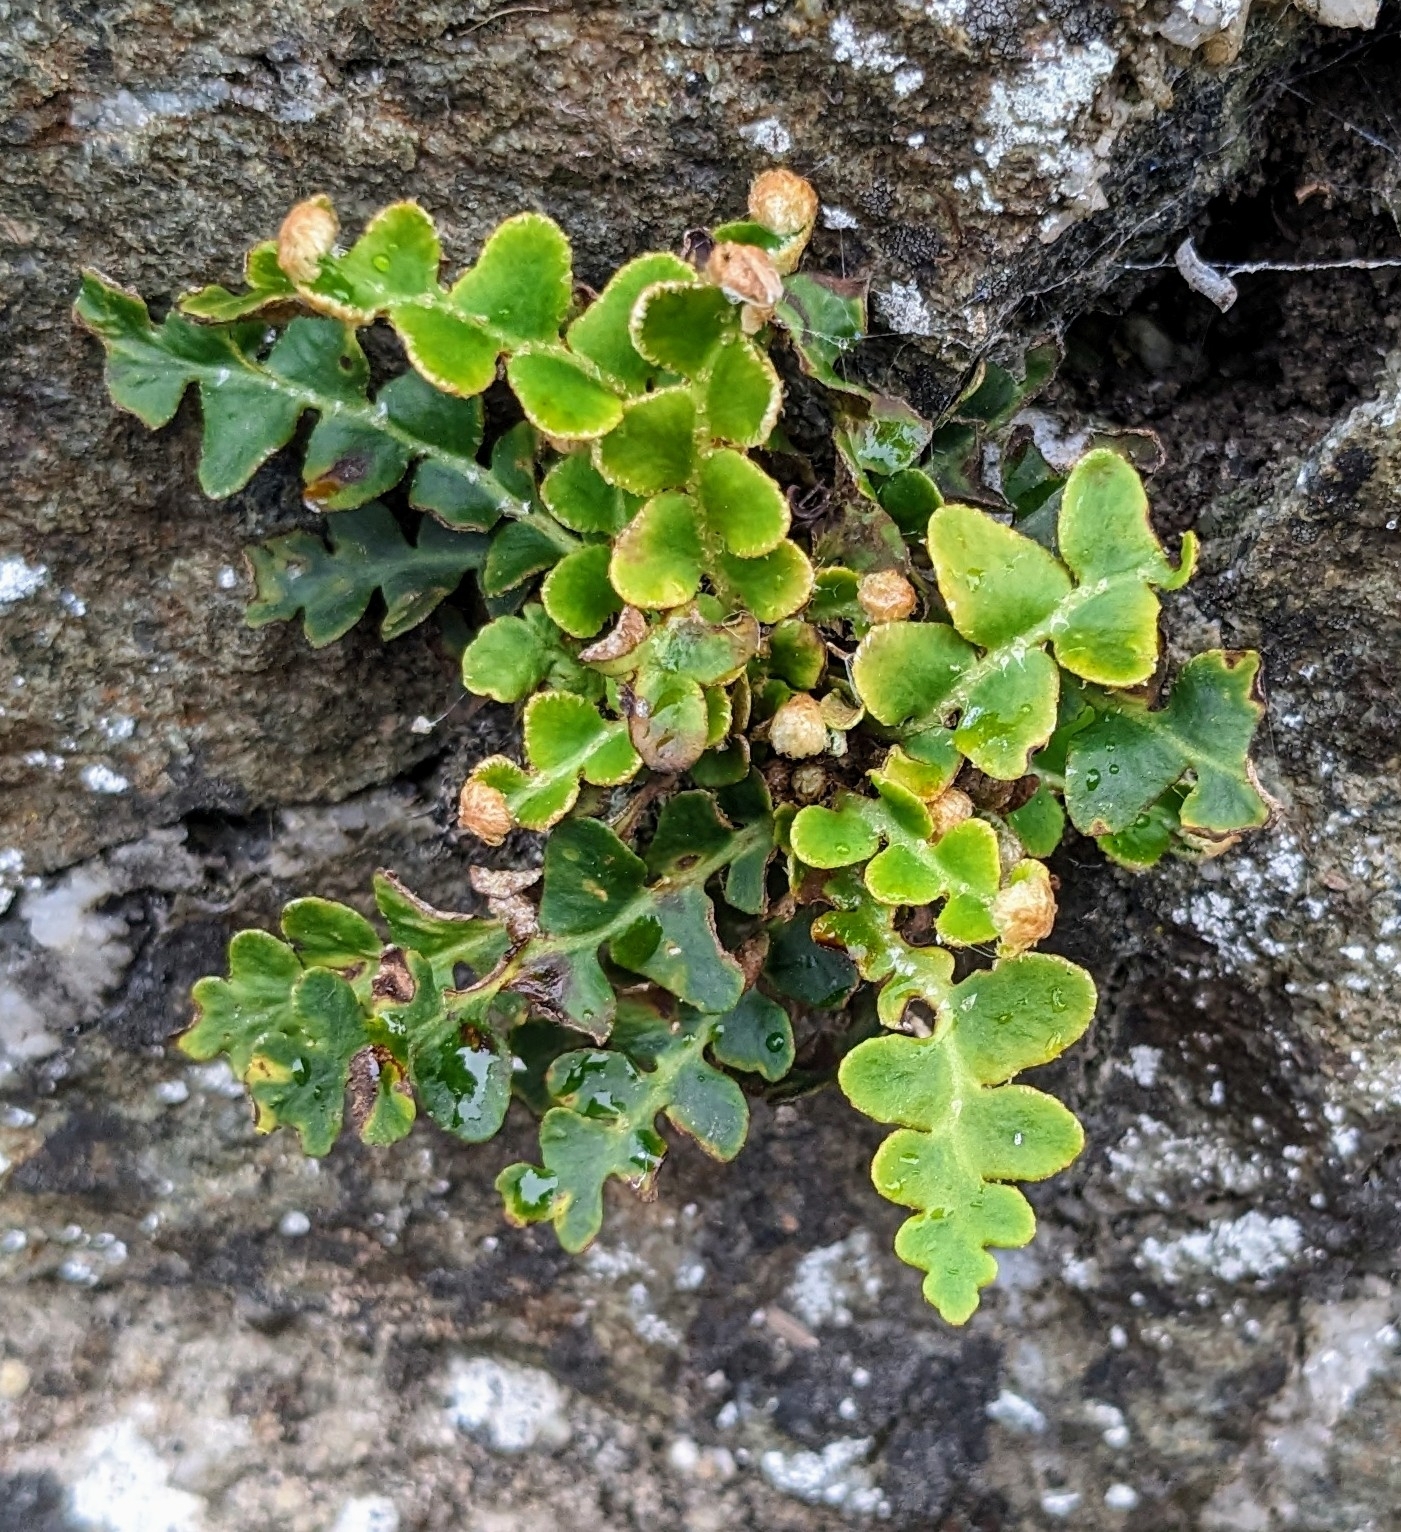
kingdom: Plantae
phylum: Tracheophyta
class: Polypodiopsida
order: Polypodiales
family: Aspleniaceae
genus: Asplenium
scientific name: Asplenium ceterach
